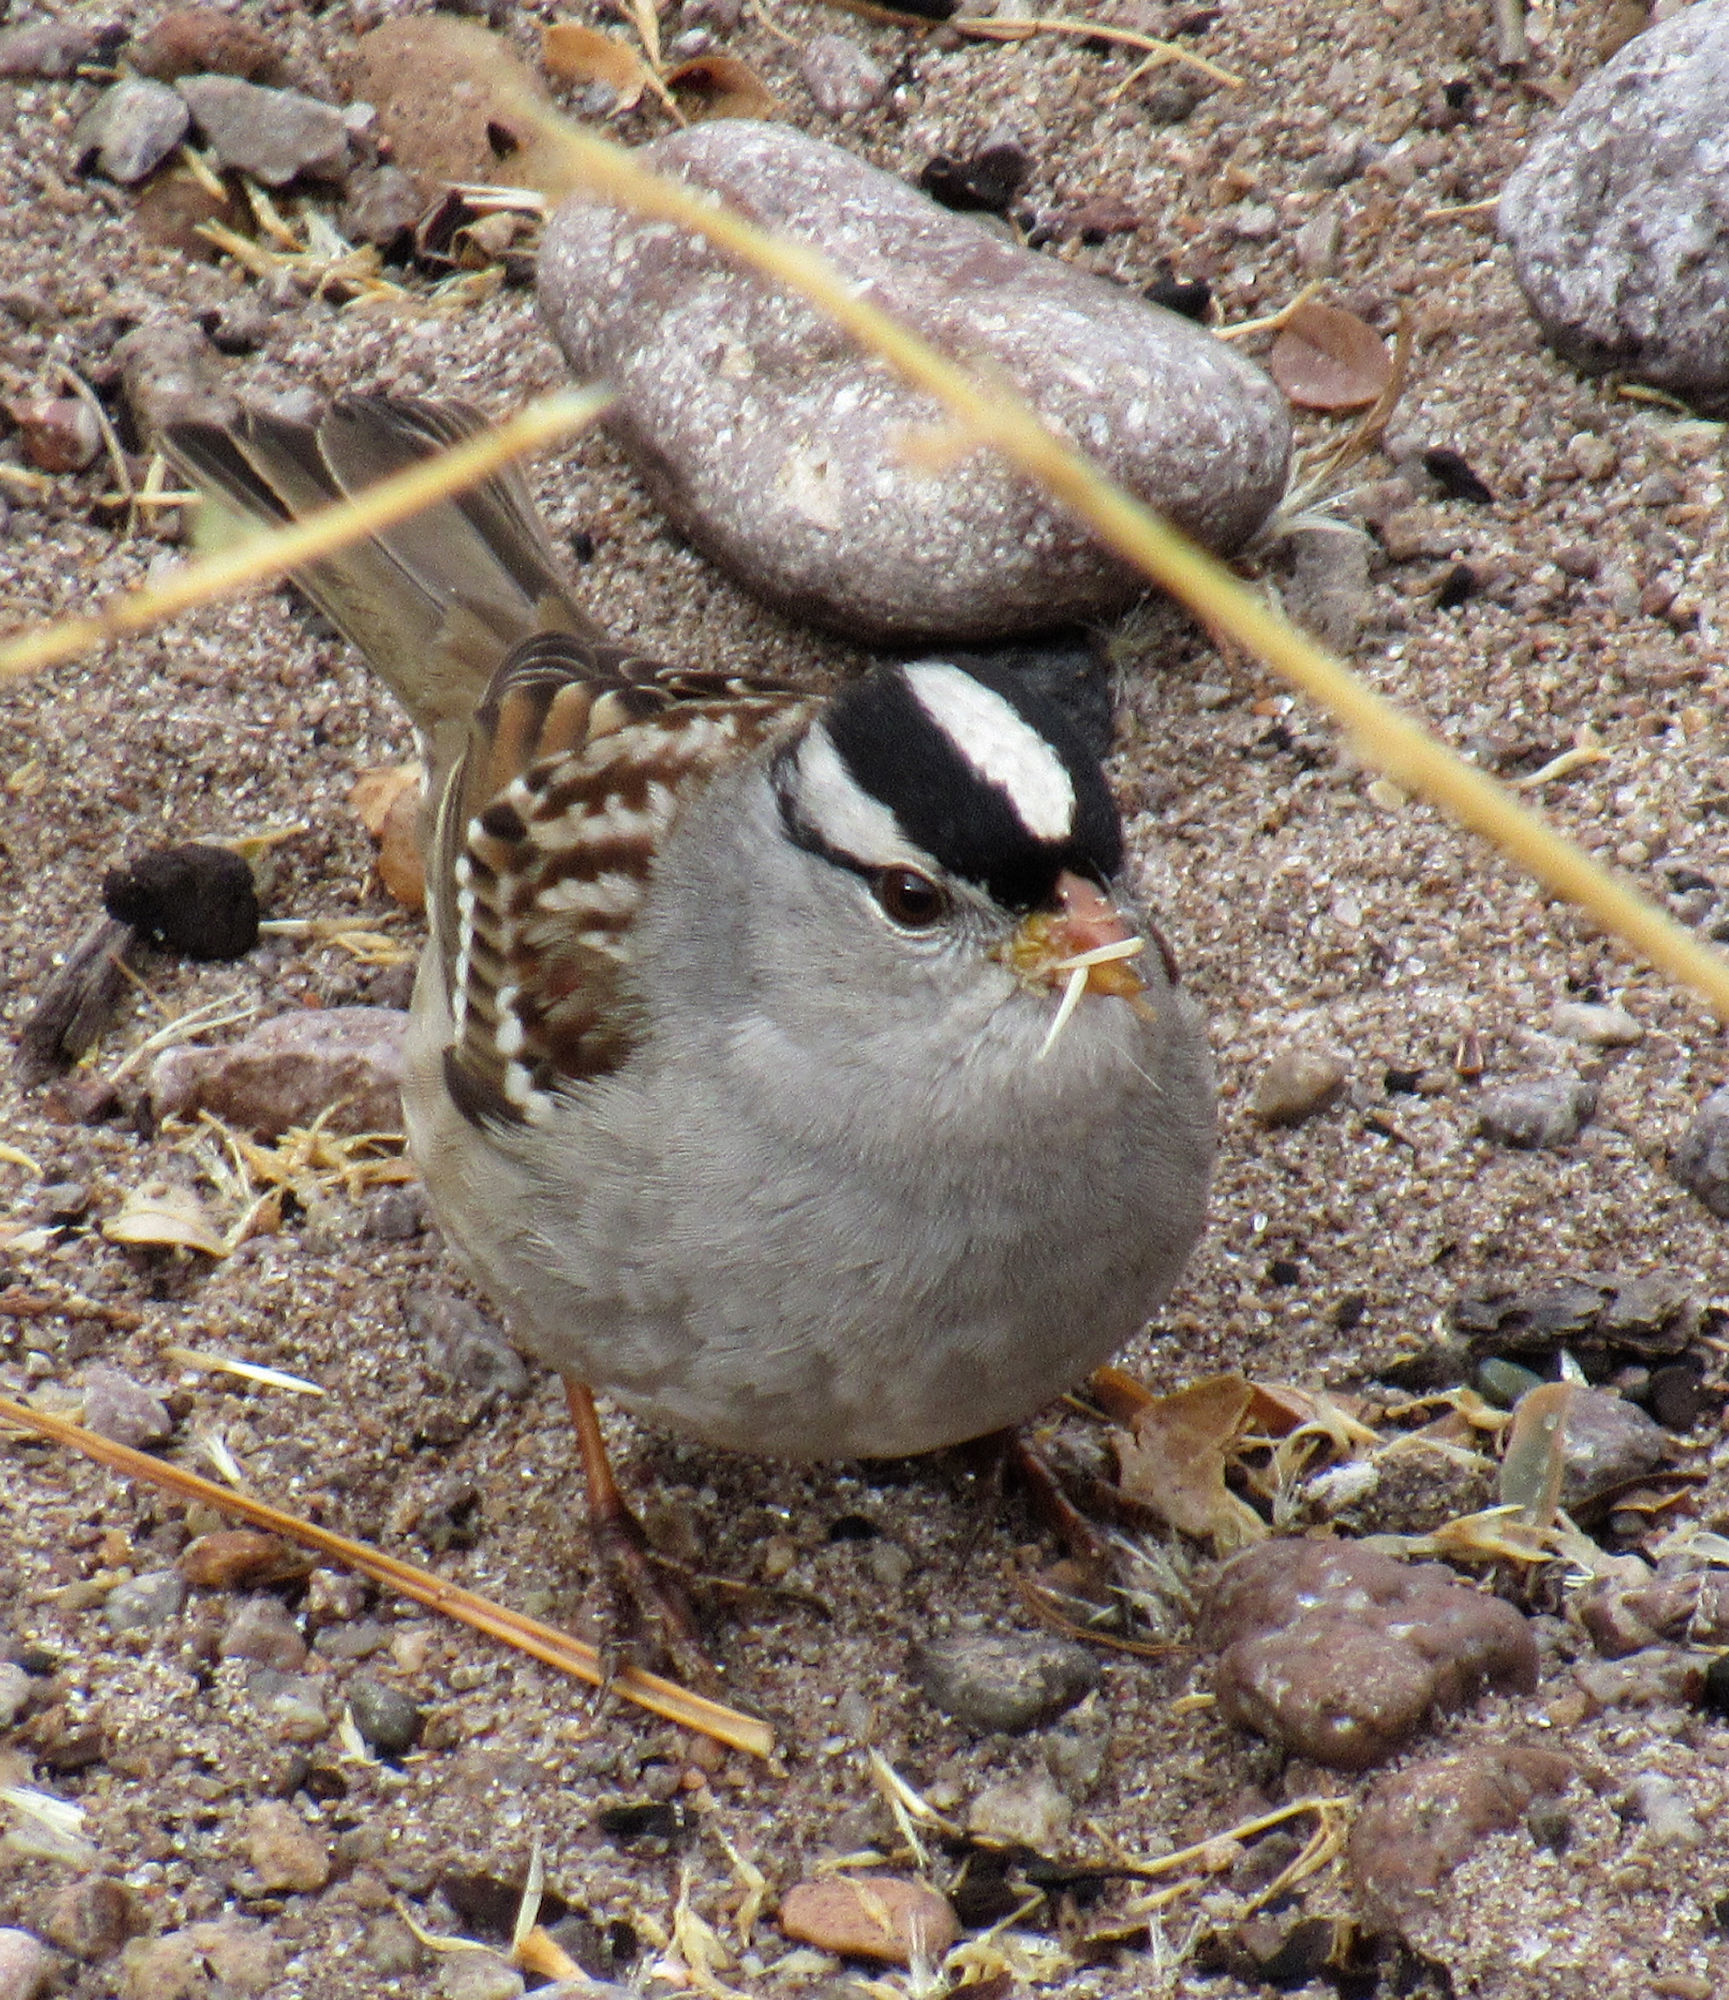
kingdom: Animalia
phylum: Chordata
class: Aves
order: Passeriformes
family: Passerellidae
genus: Zonotrichia
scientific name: Zonotrichia leucophrys
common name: White-crowned sparrow
